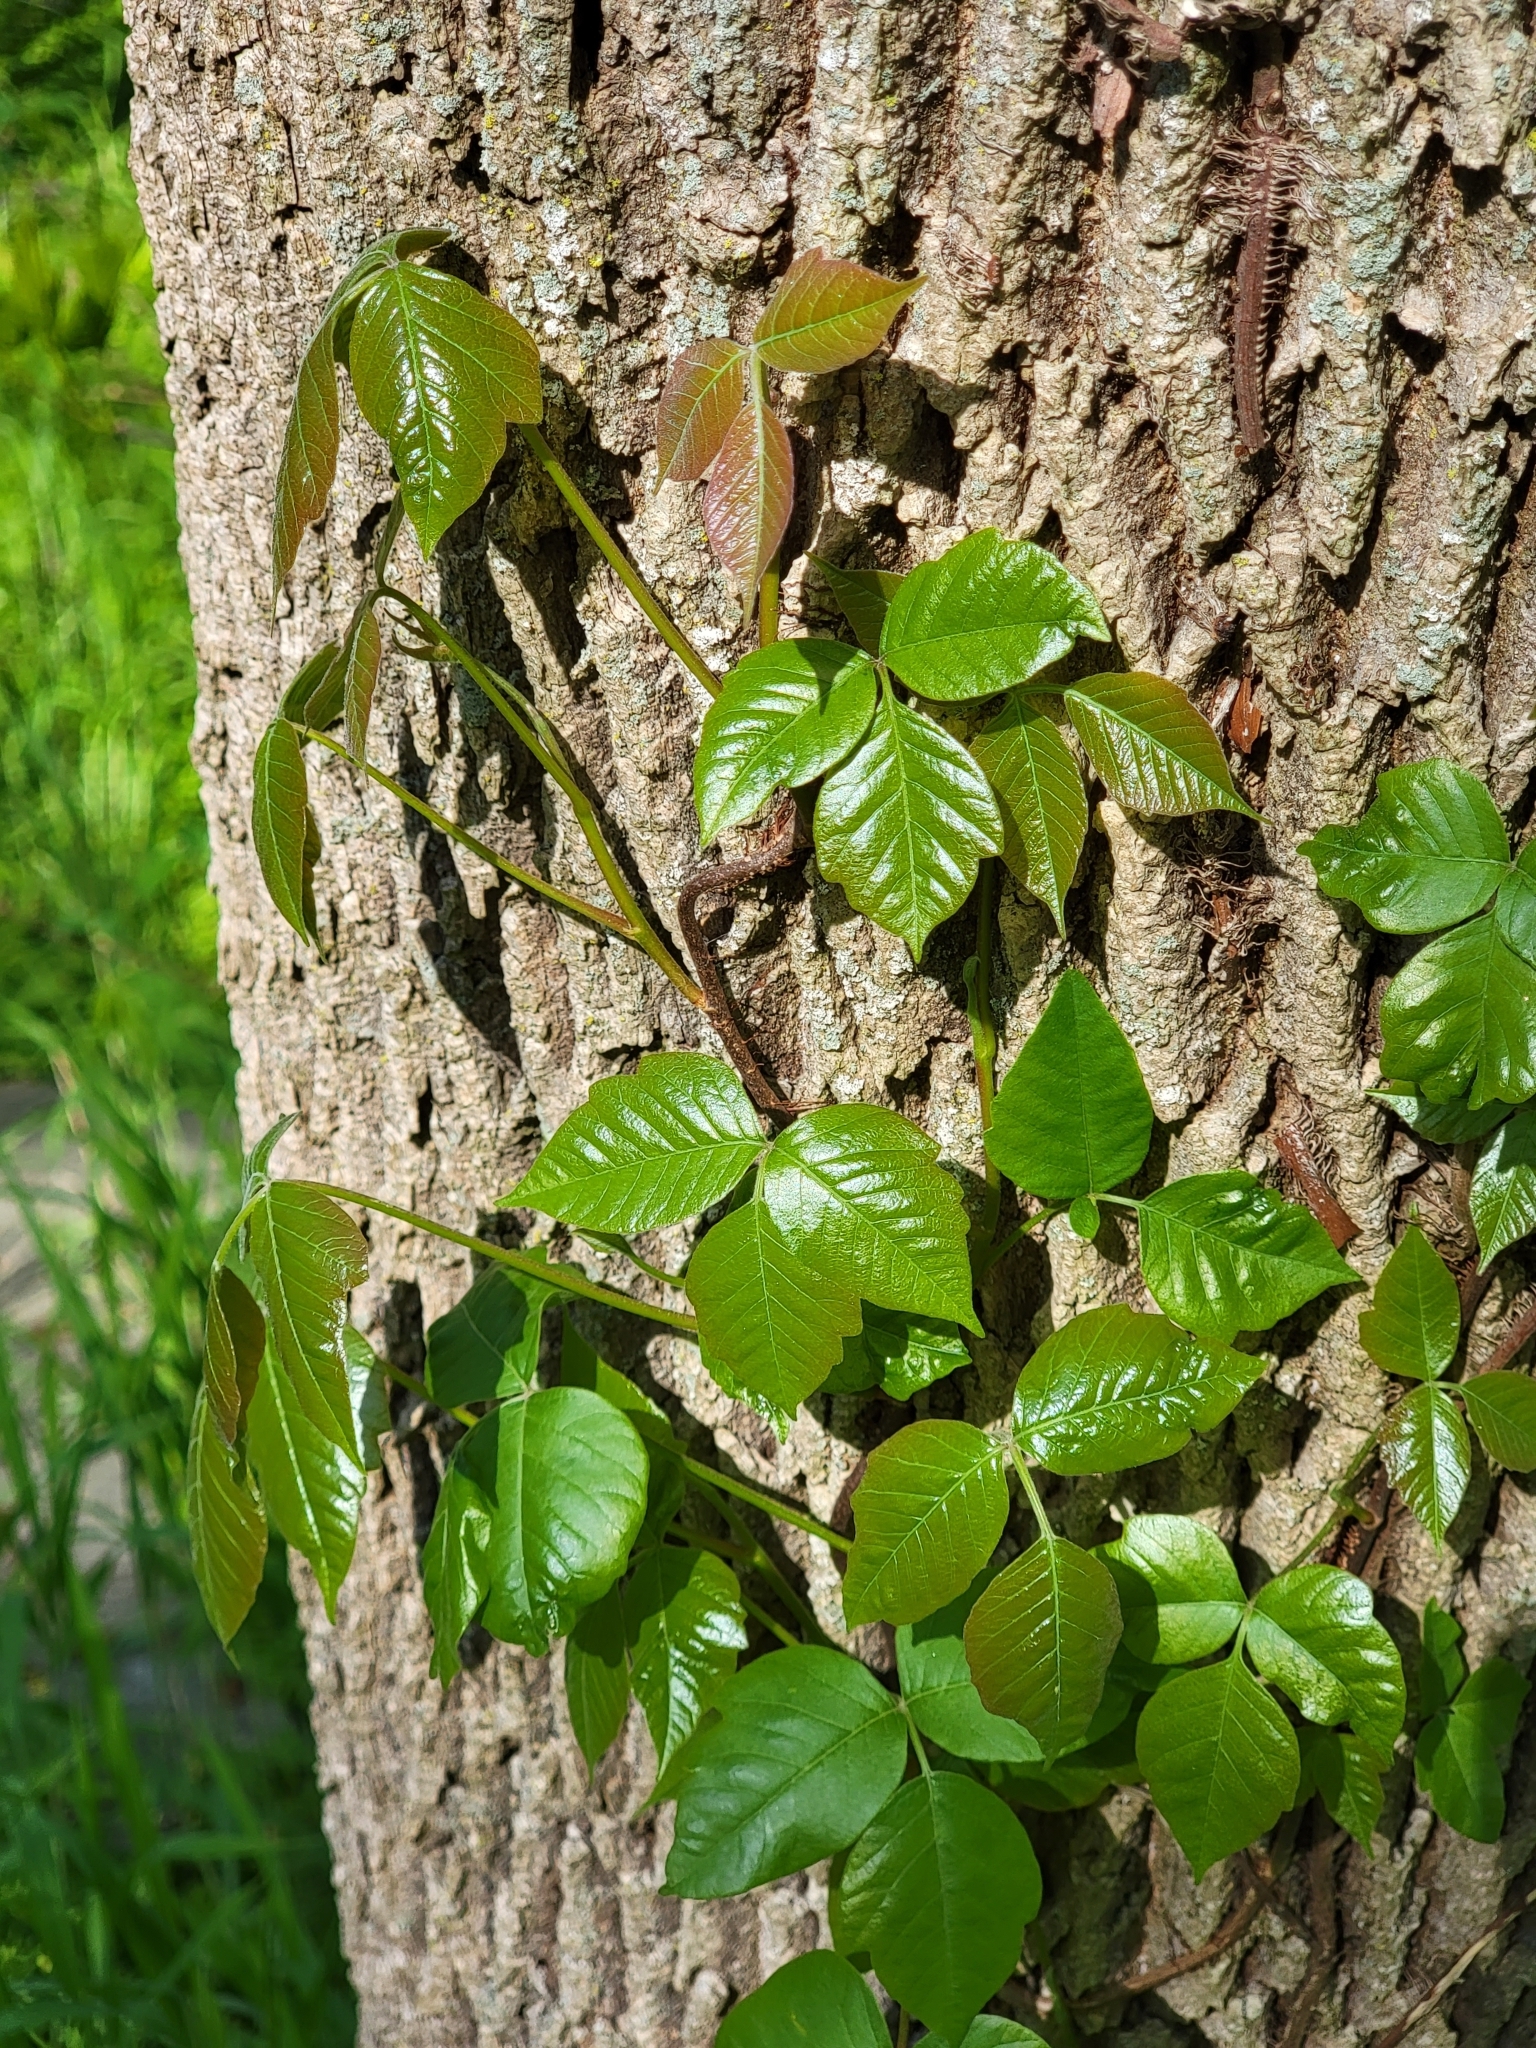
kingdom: Plantae
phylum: Tracheophyta
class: Magnoliopsida
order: Sapindales
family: Anacardiaceae
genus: Toxicodendron
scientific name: Toxicodendron radicans
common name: Poison ivy
